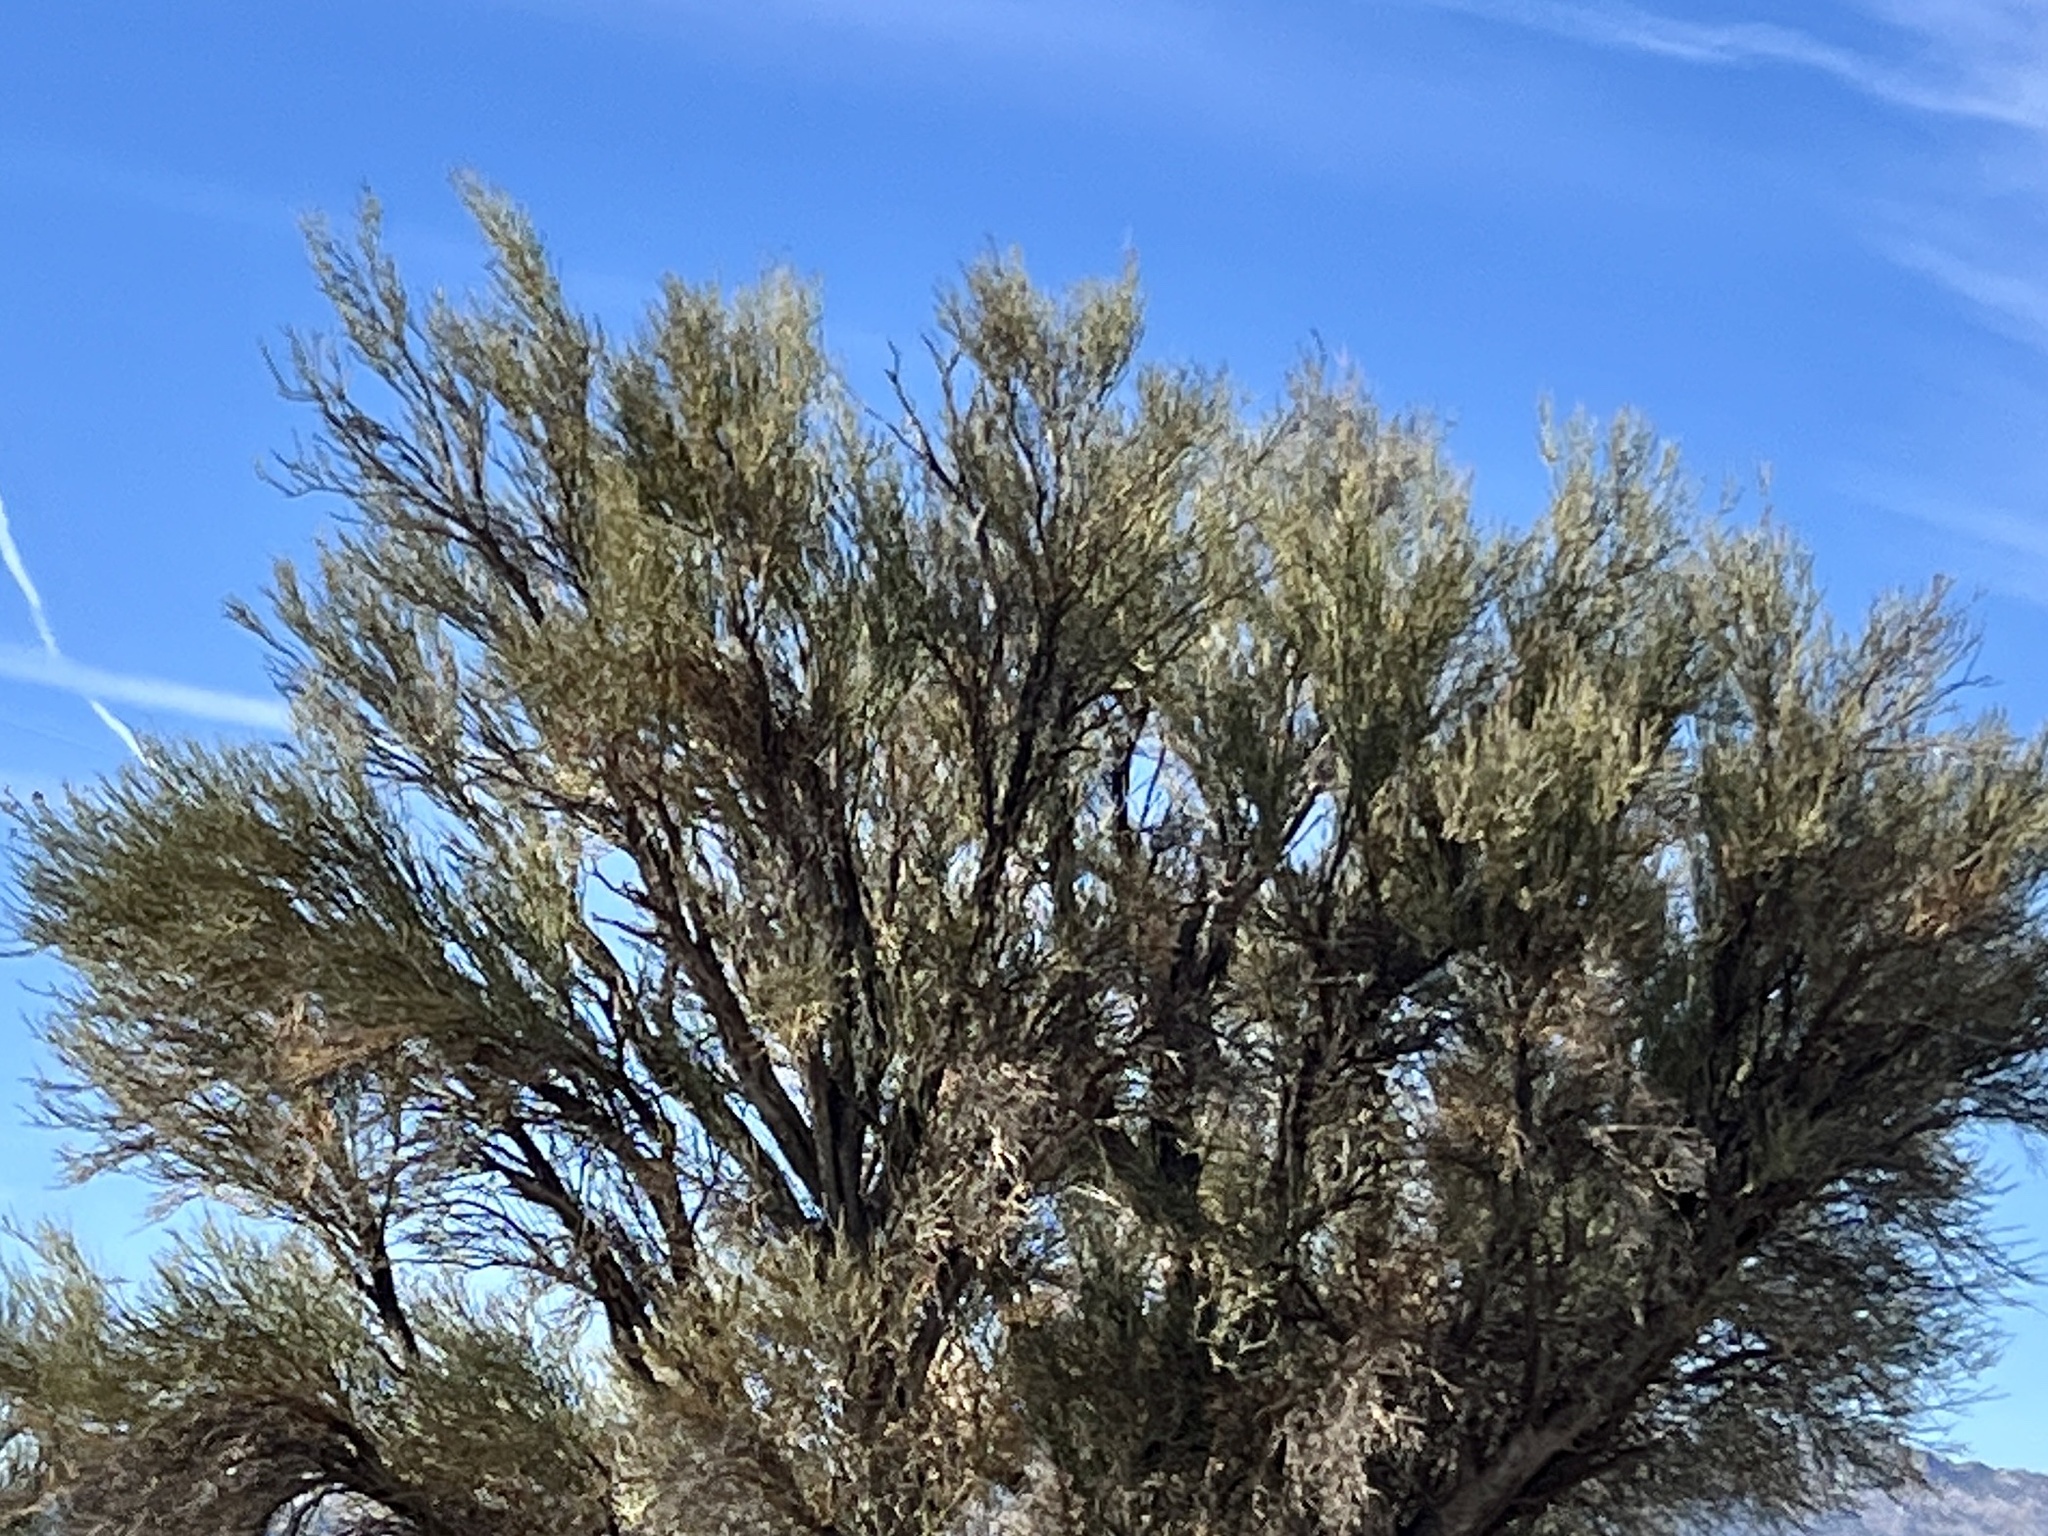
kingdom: Plantae
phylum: Tracheophyta
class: Magnoliopsida
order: Celastrales
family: Celastraceae
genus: Canotia
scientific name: Canotia holacantha
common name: Crucifixion thorns
